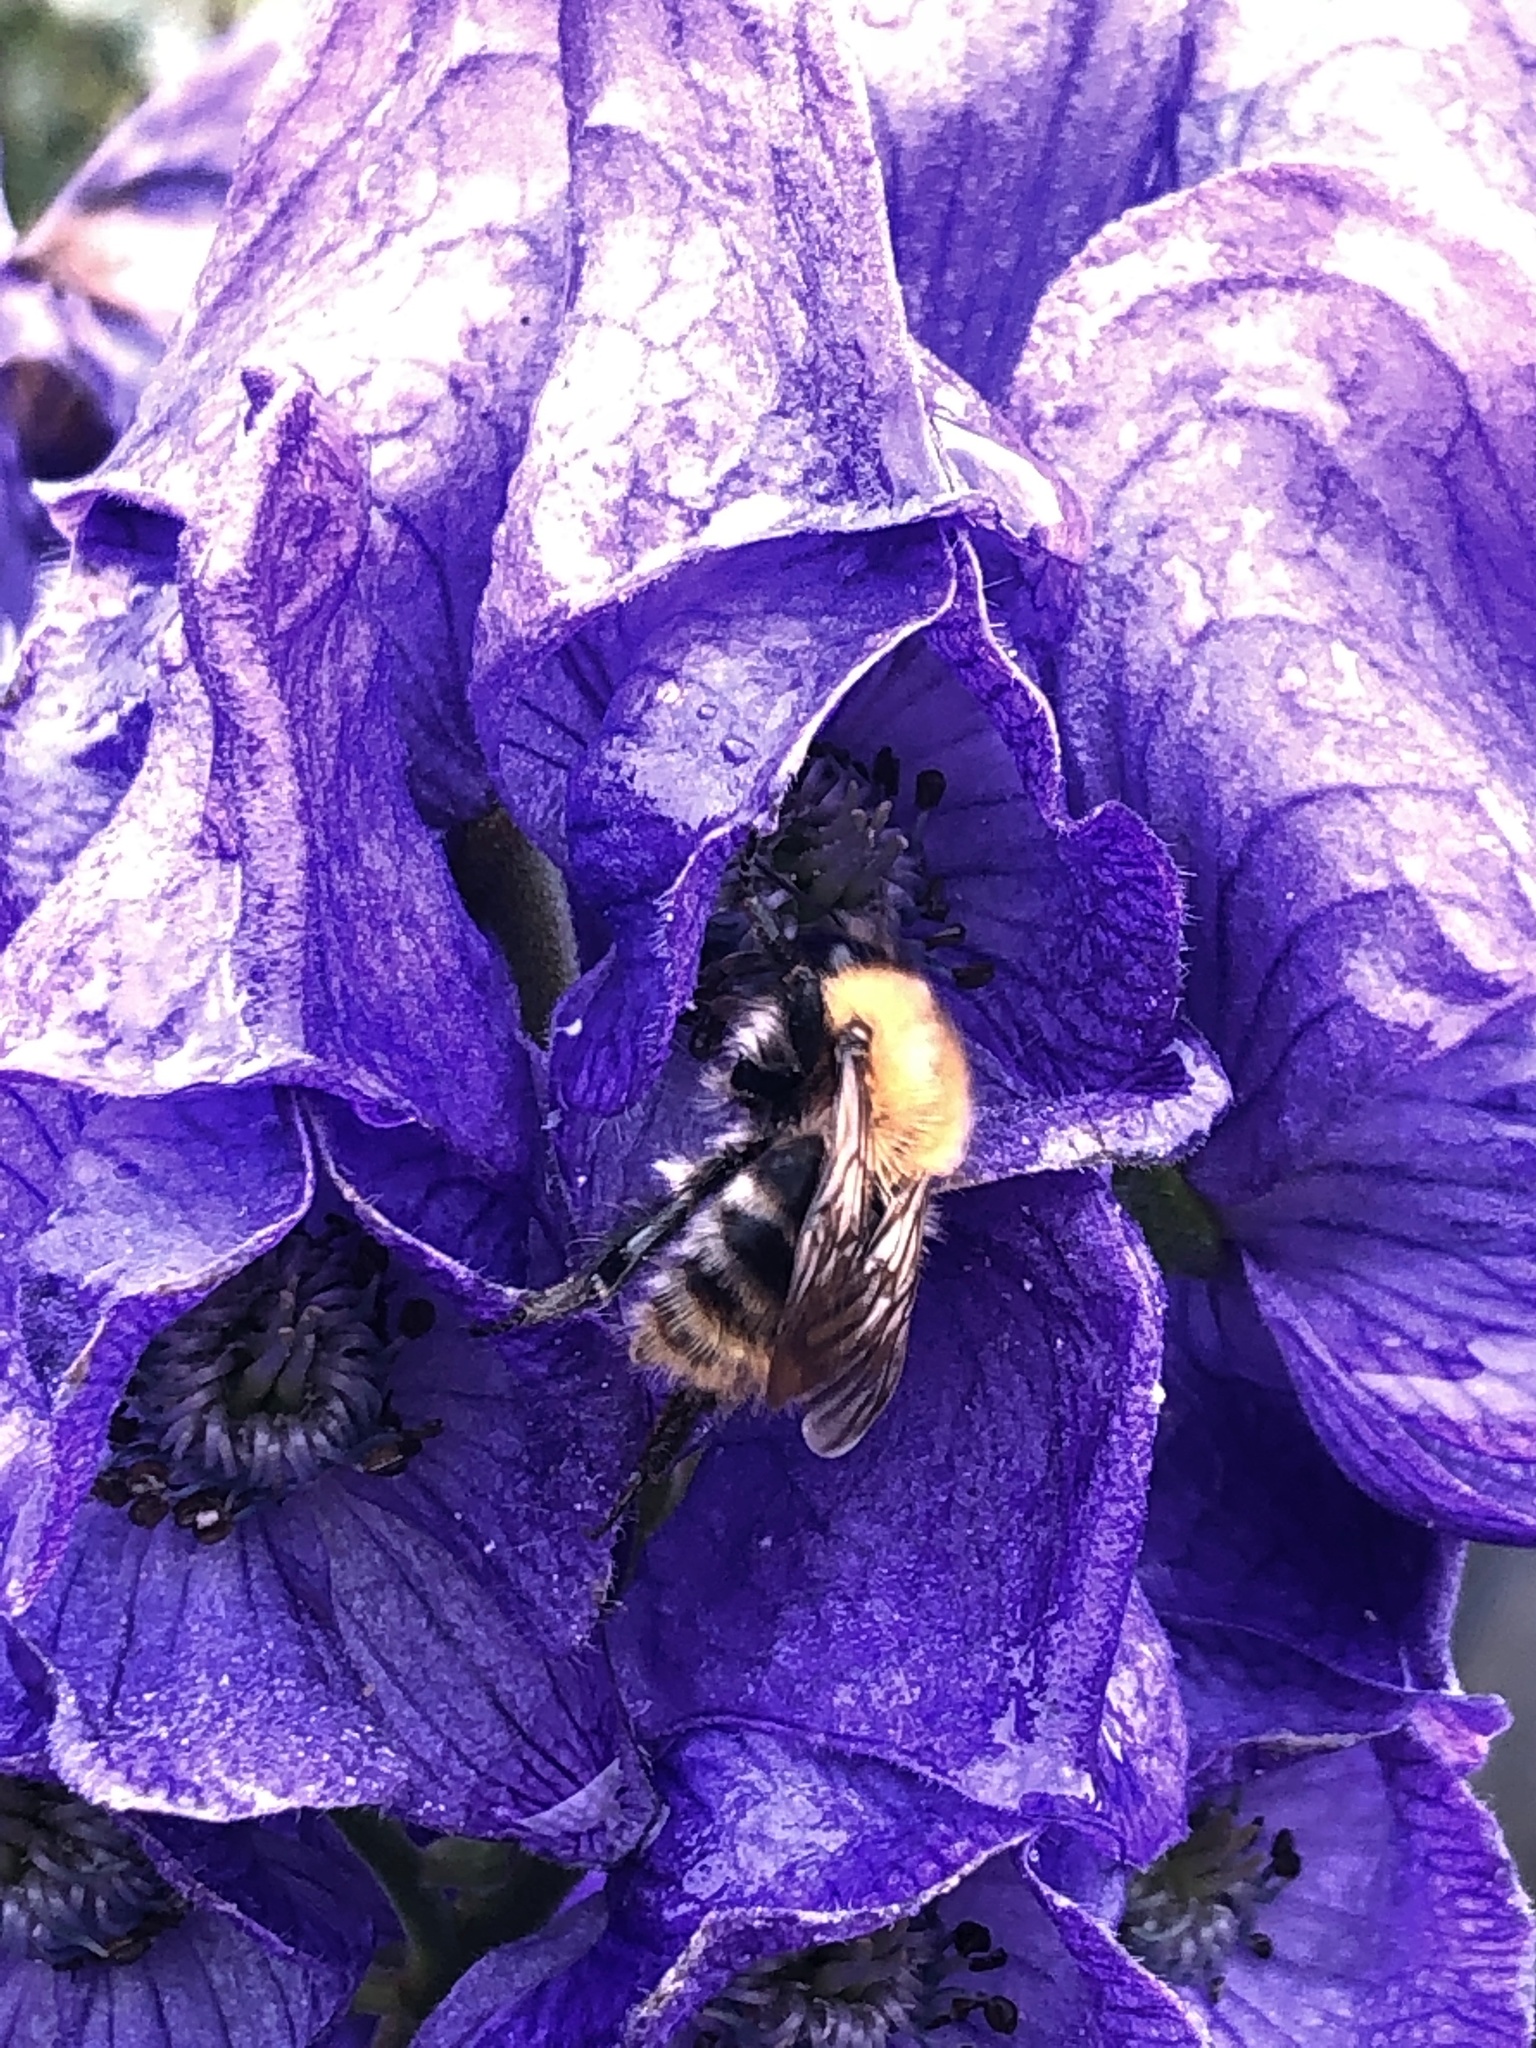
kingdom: Animalia
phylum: Arthropoda
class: Insecta
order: Hymenoptera
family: Apidae
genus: Bombus
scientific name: Bombus pascuorum
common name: Common carder bee
